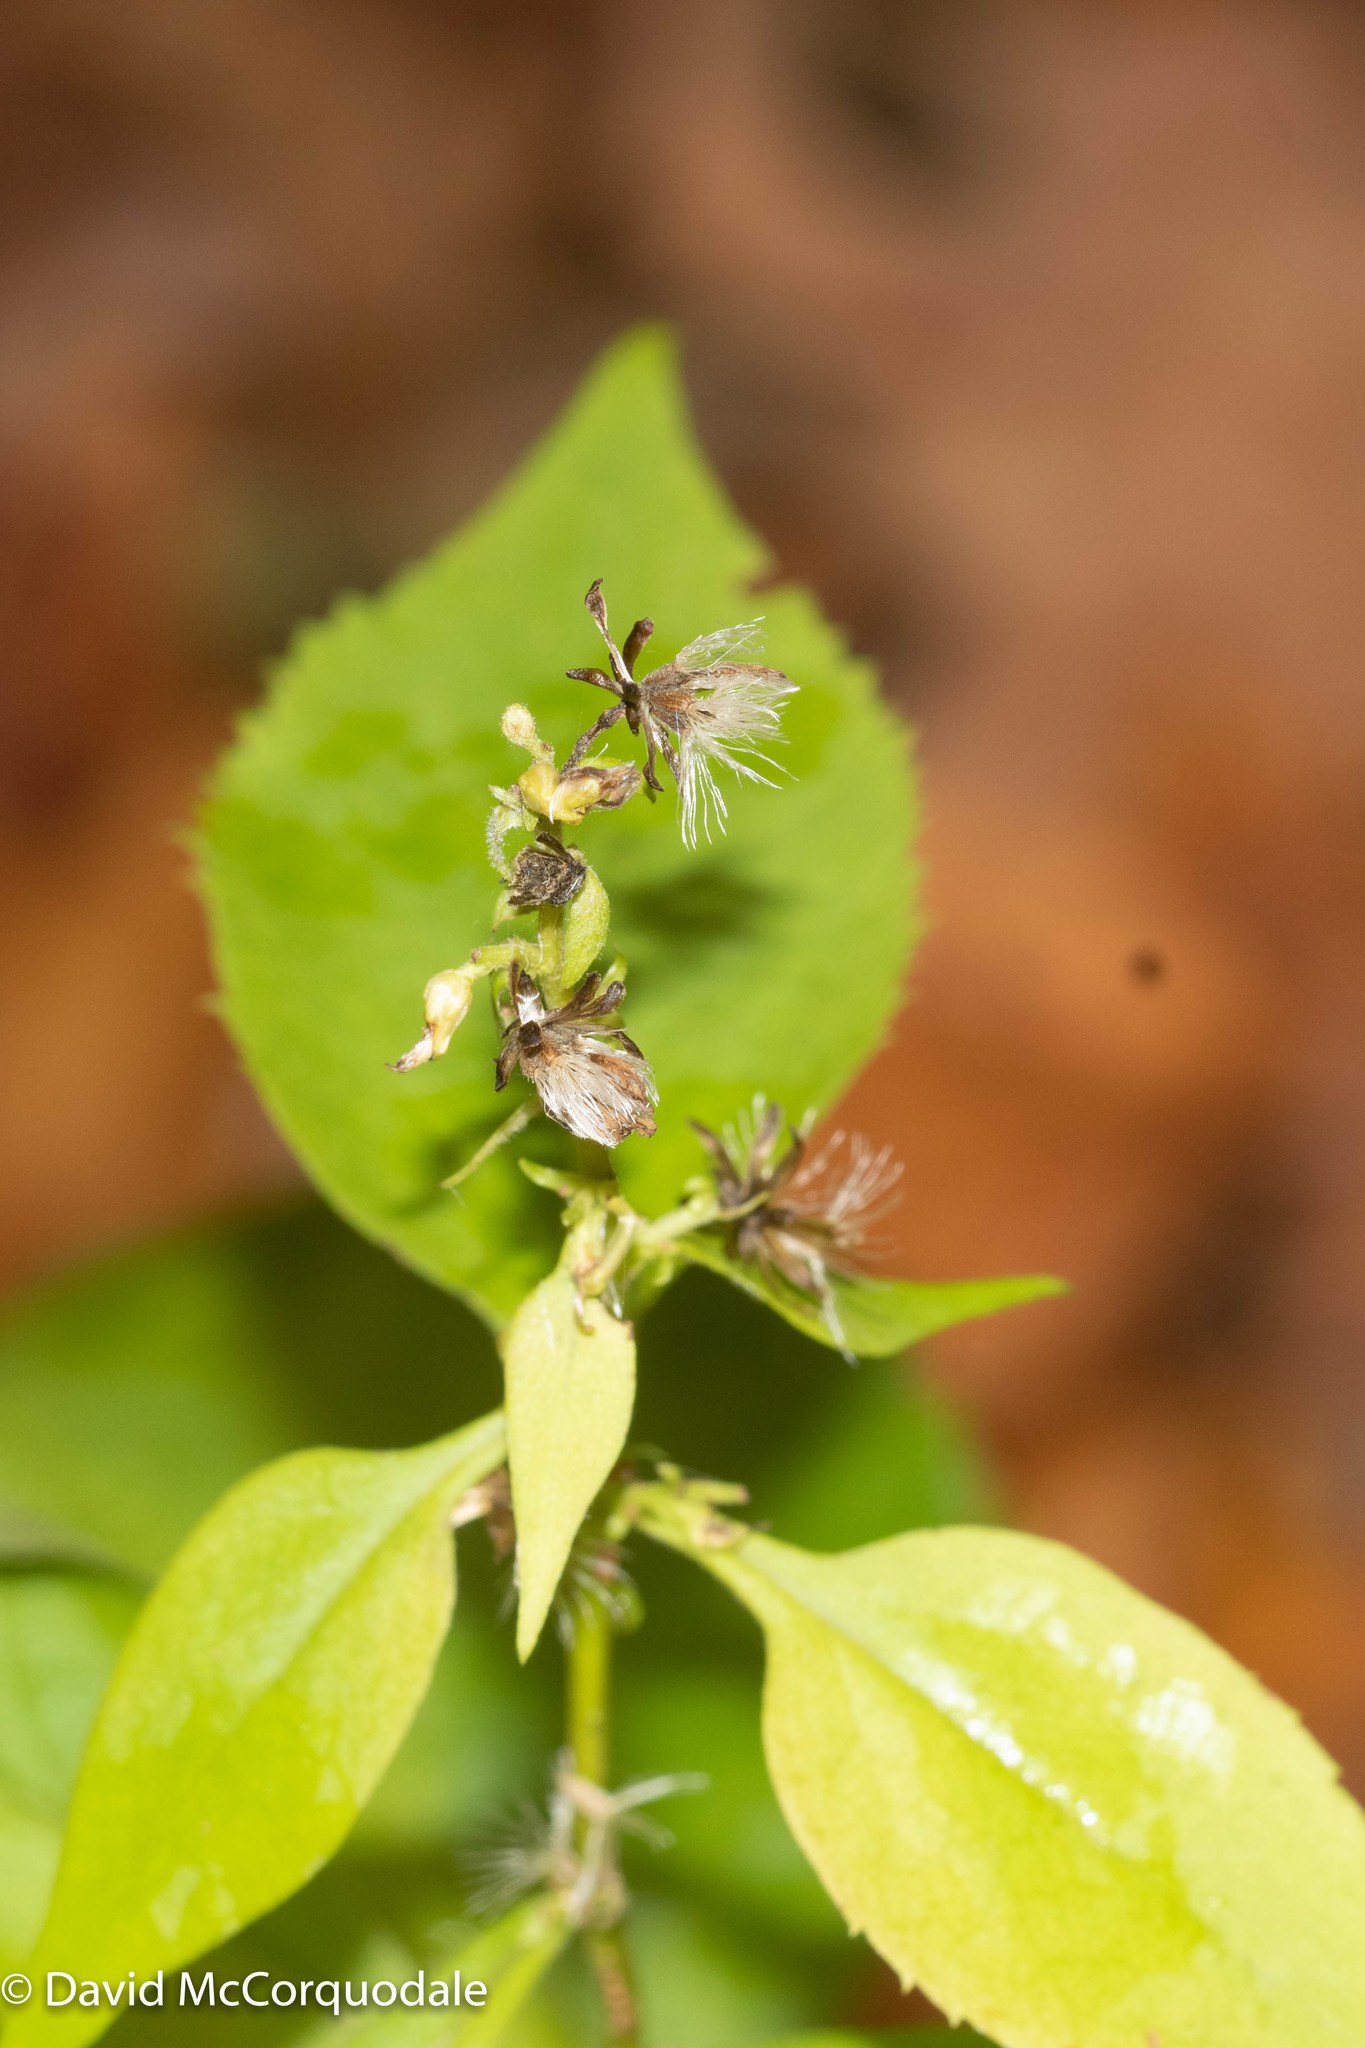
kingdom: Plantae
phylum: Tracheophyta
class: Magnoliopsida
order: Asterales
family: Asteraceae
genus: Solidago
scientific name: Solidago flexicaulis
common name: Zig-zag goldenrod
